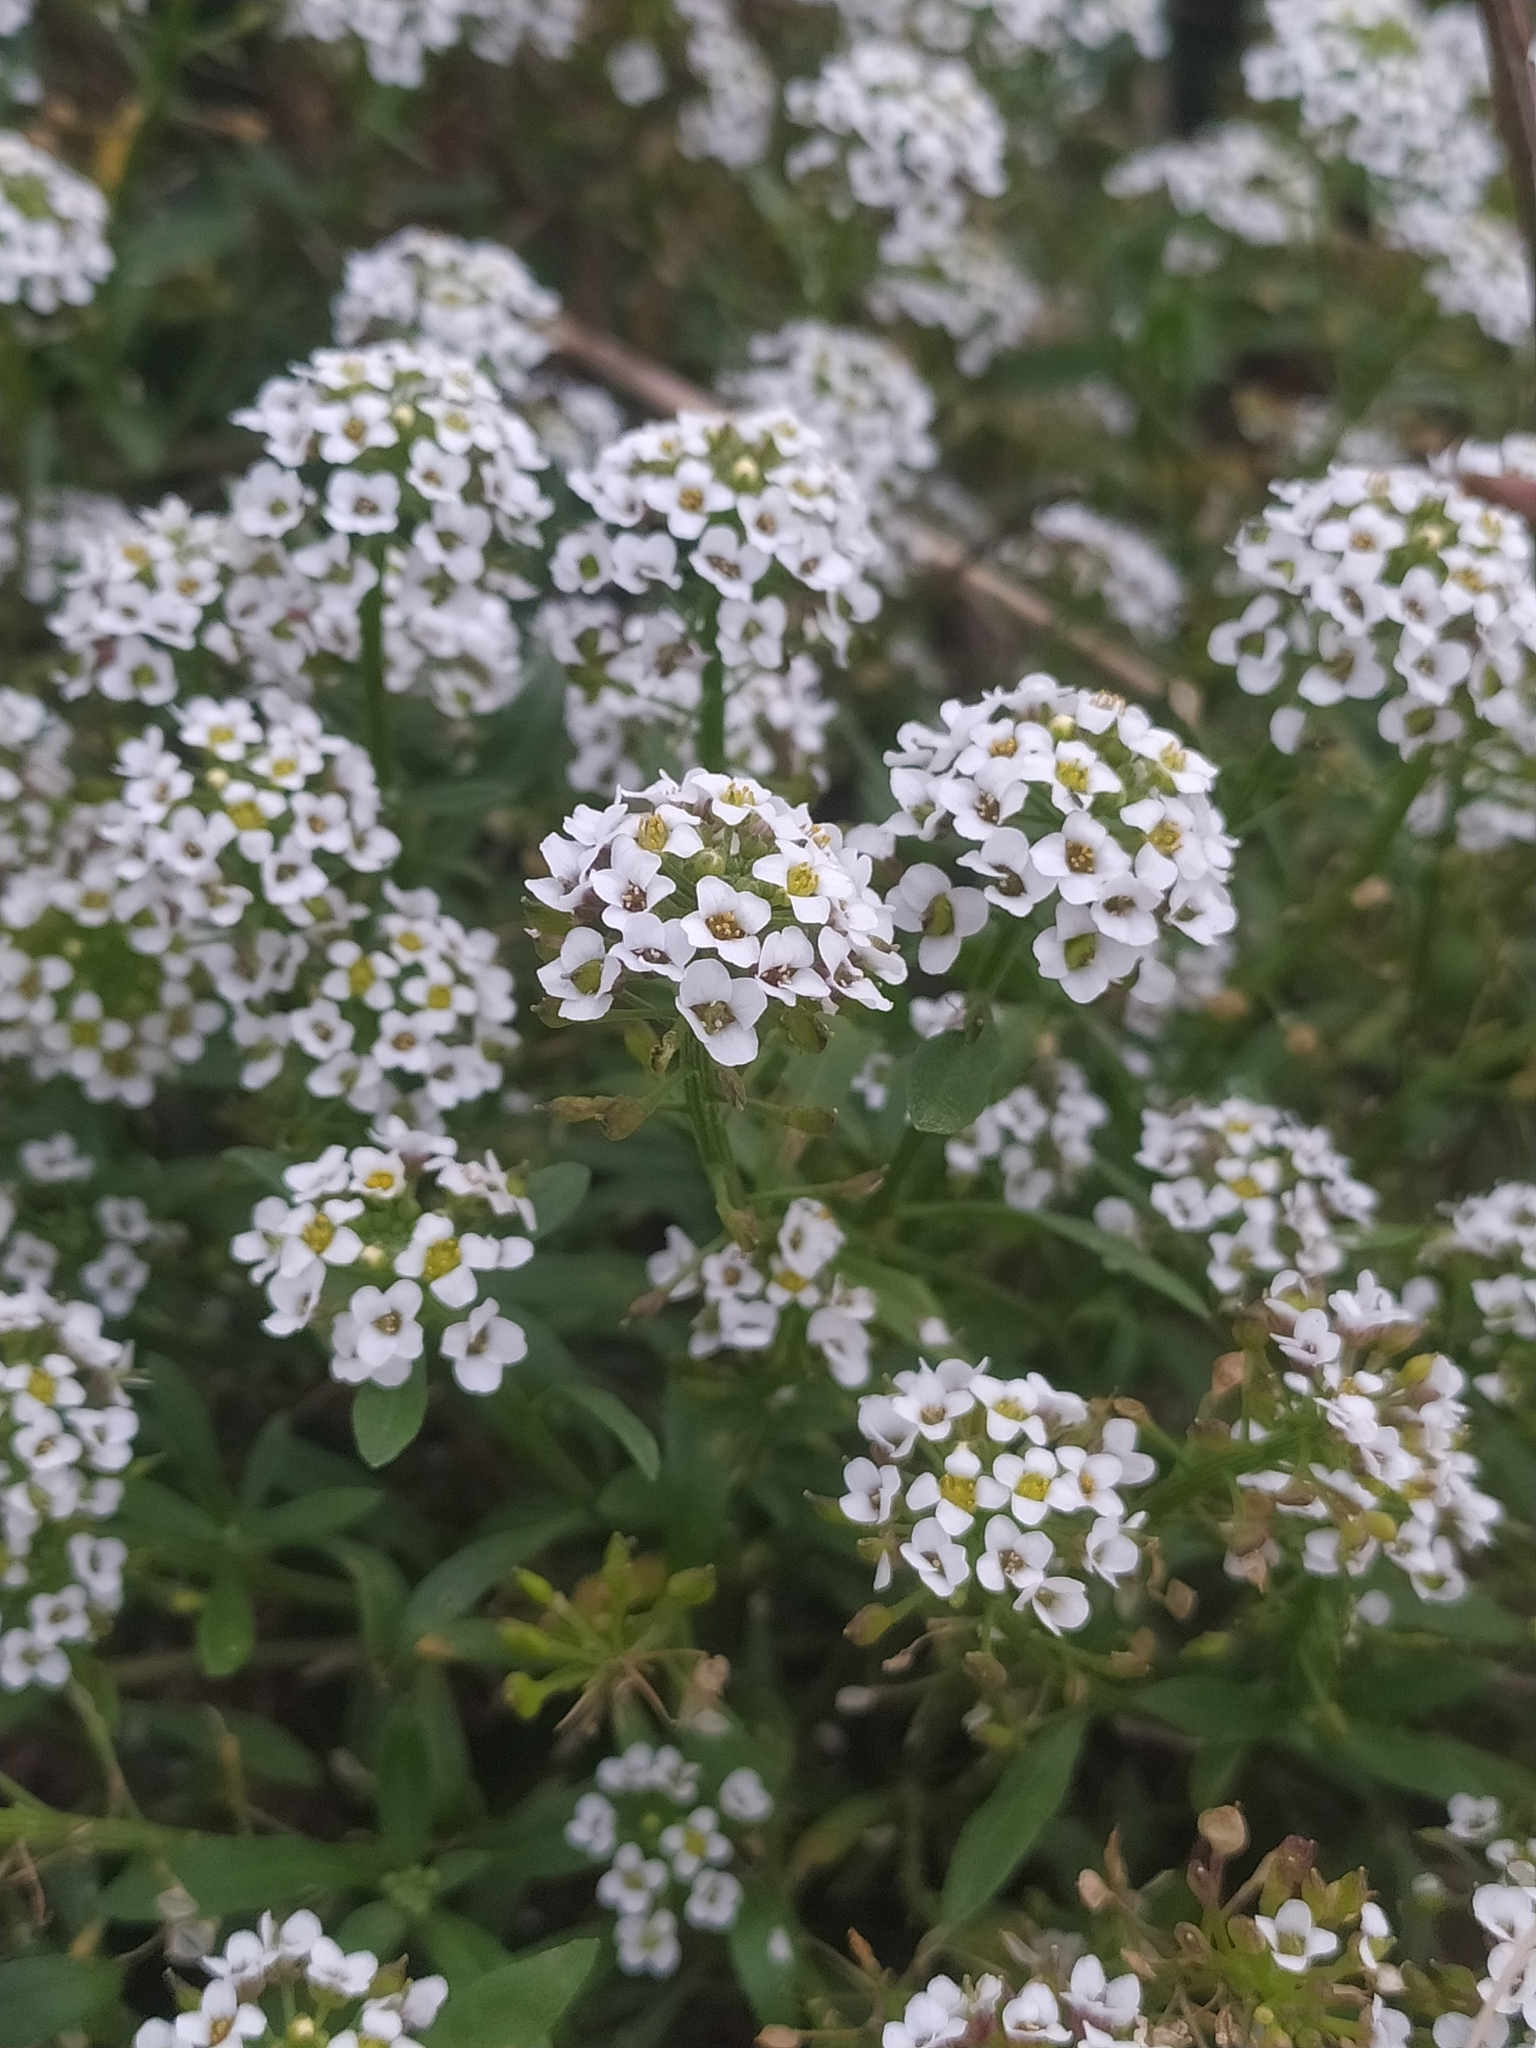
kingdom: Plantae
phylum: Tracheophyta
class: Magnoliopsida
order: Brassicales
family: Brassicaceae
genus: Lobularia
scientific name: Lobularia maritima
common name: Sweet alison
